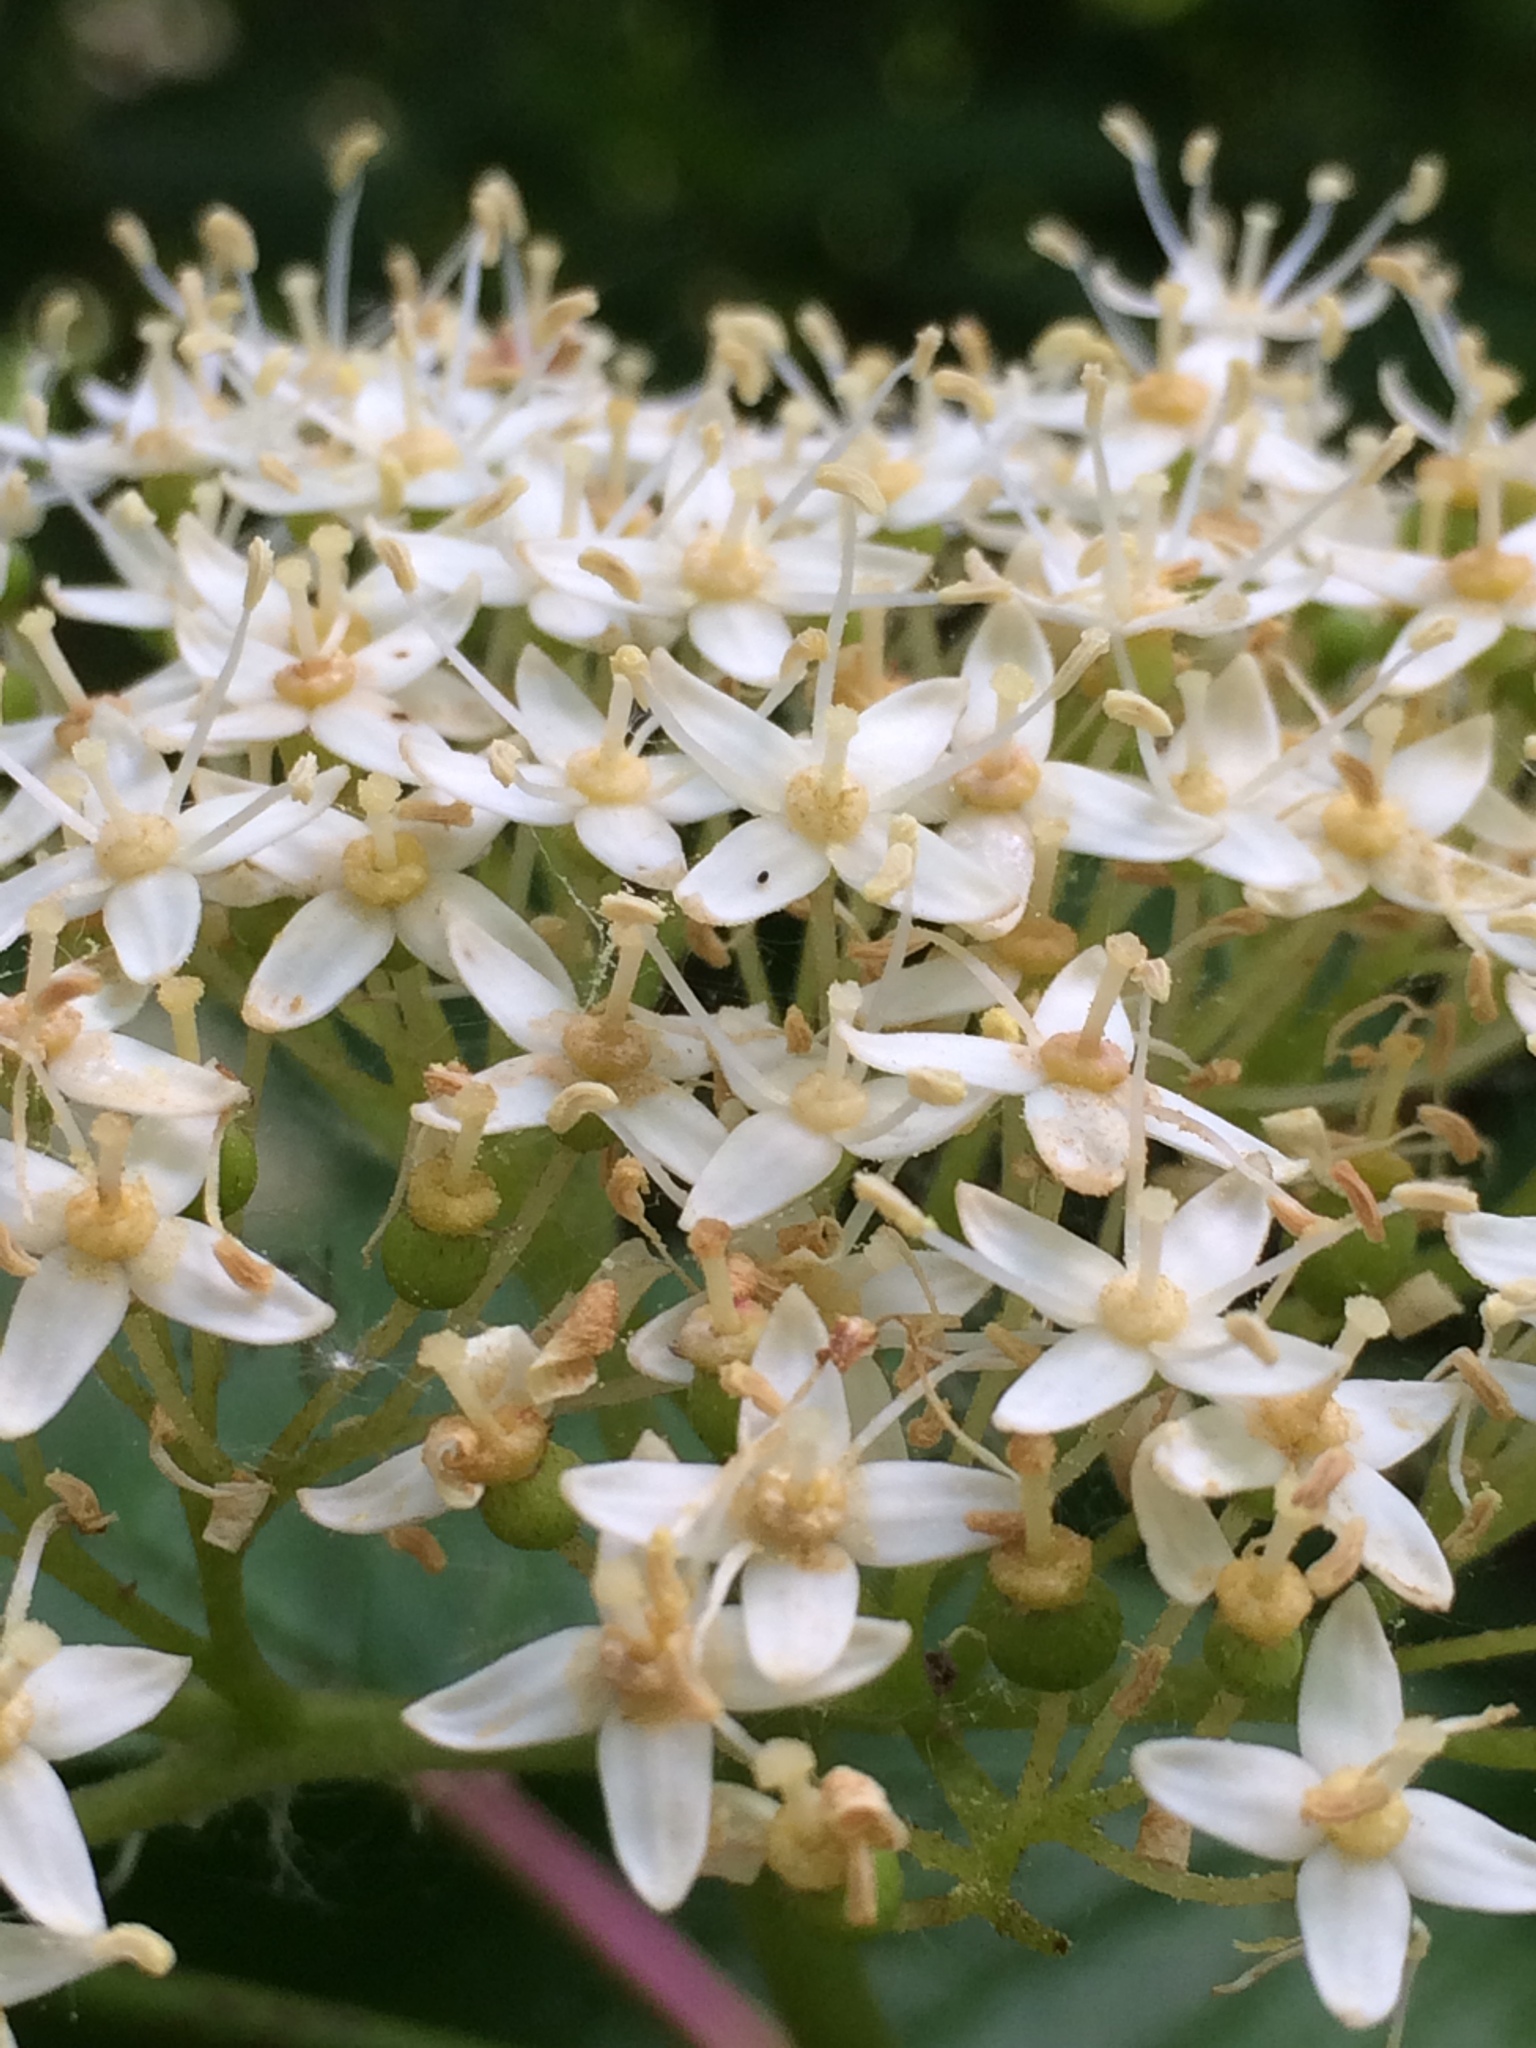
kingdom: Plantae
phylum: Tracheophyta
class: Magnoliopsida
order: Cornales
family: Cornaceae
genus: Cornus
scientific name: Cornus sericea
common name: Red-osier dogwood
